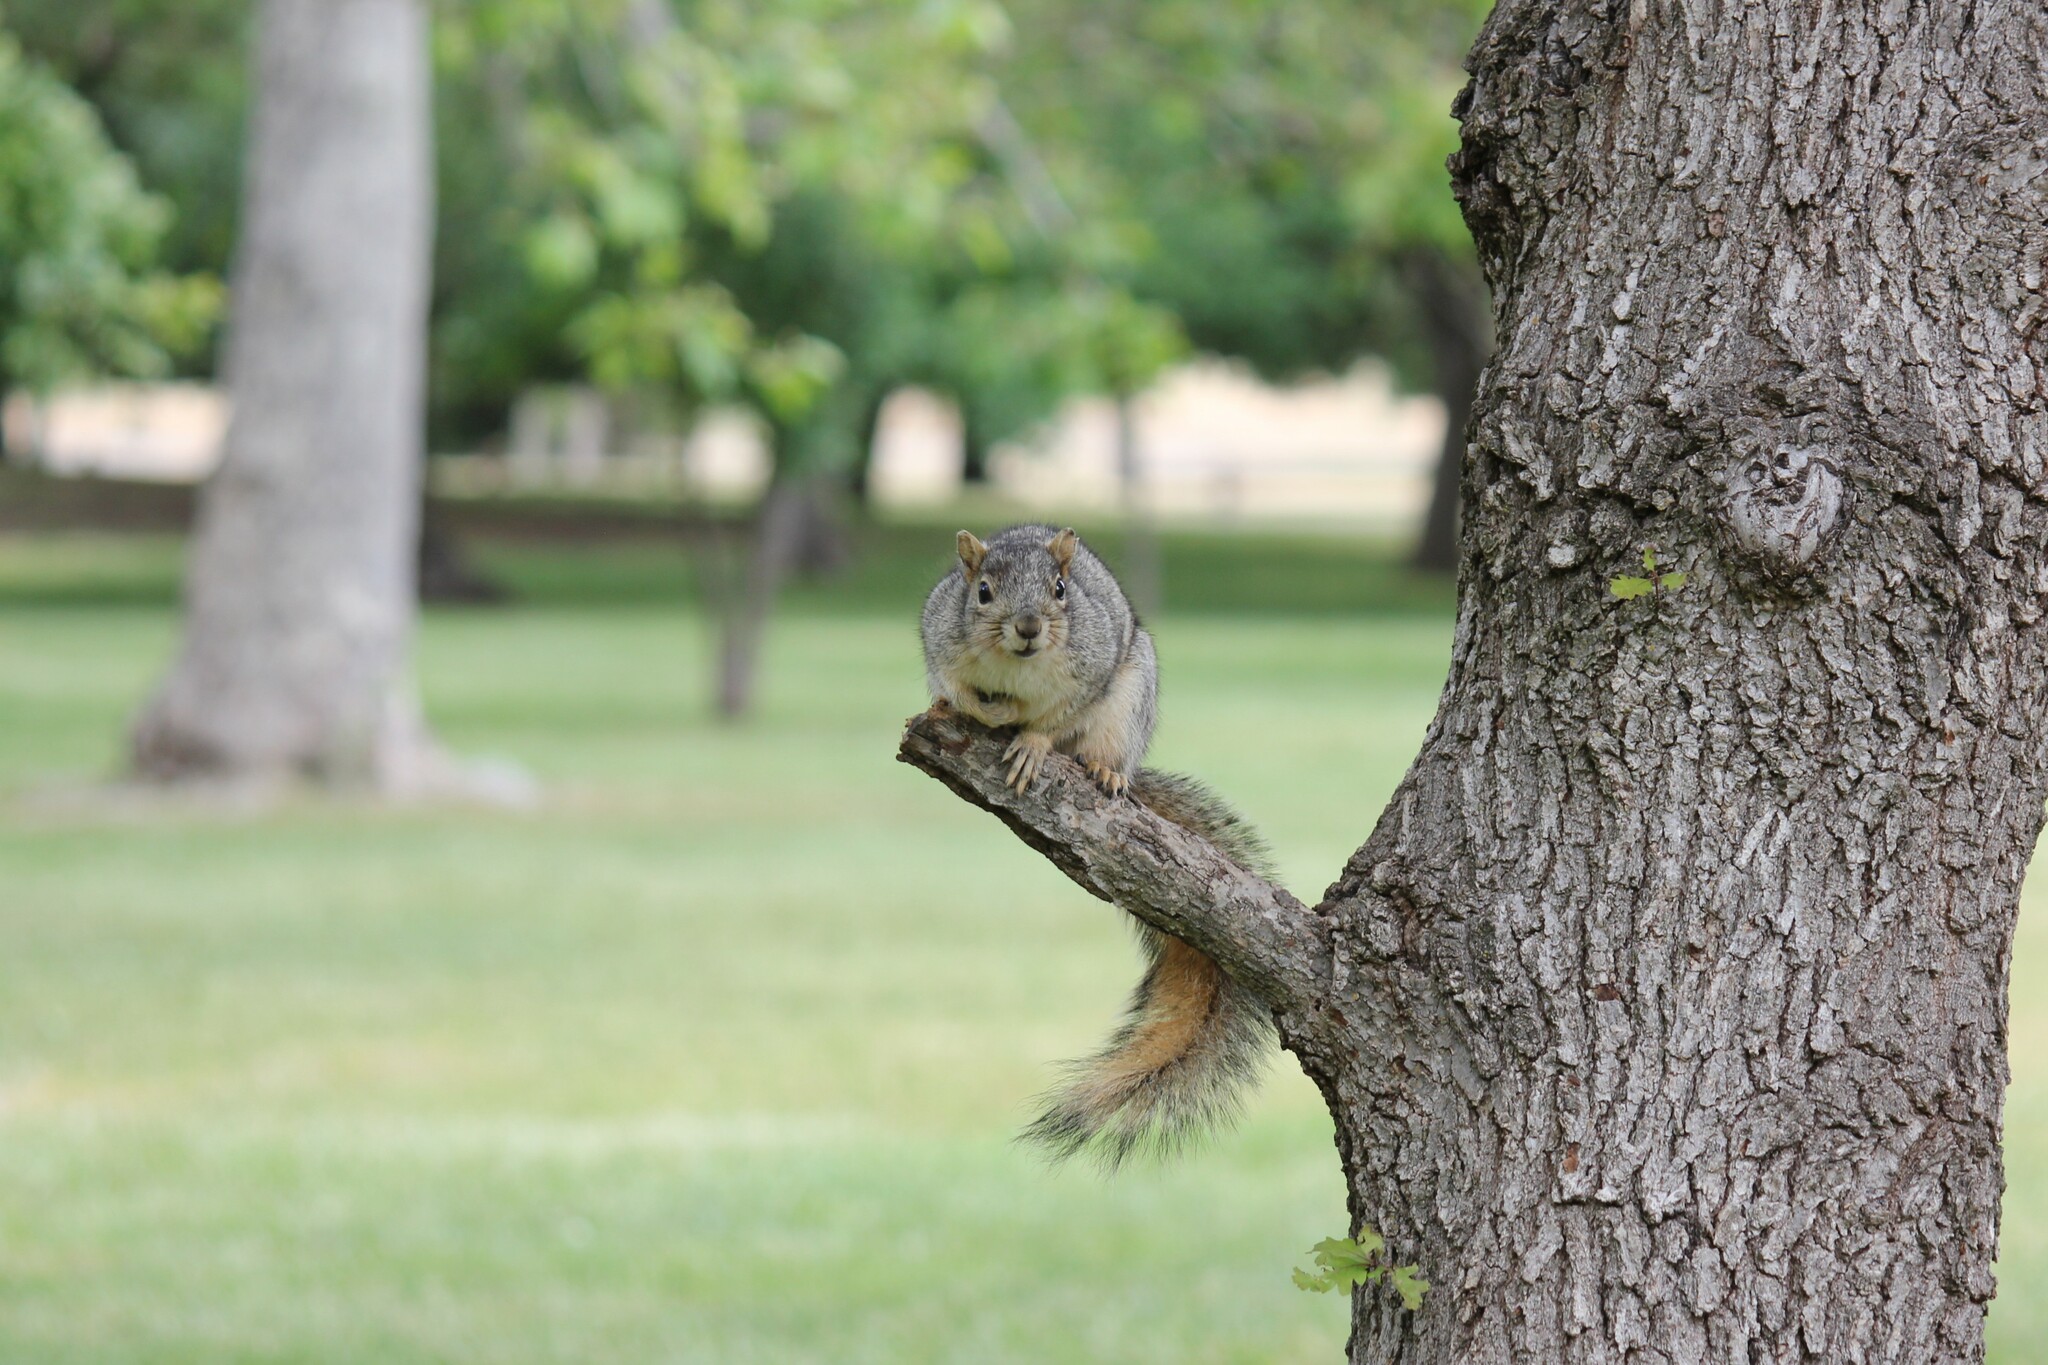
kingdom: Animalia
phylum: Chordata
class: Mammalia
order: Rodentia
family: Sciuridae
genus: Sciurus
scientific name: Sciurus niger
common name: Fox squirrel
